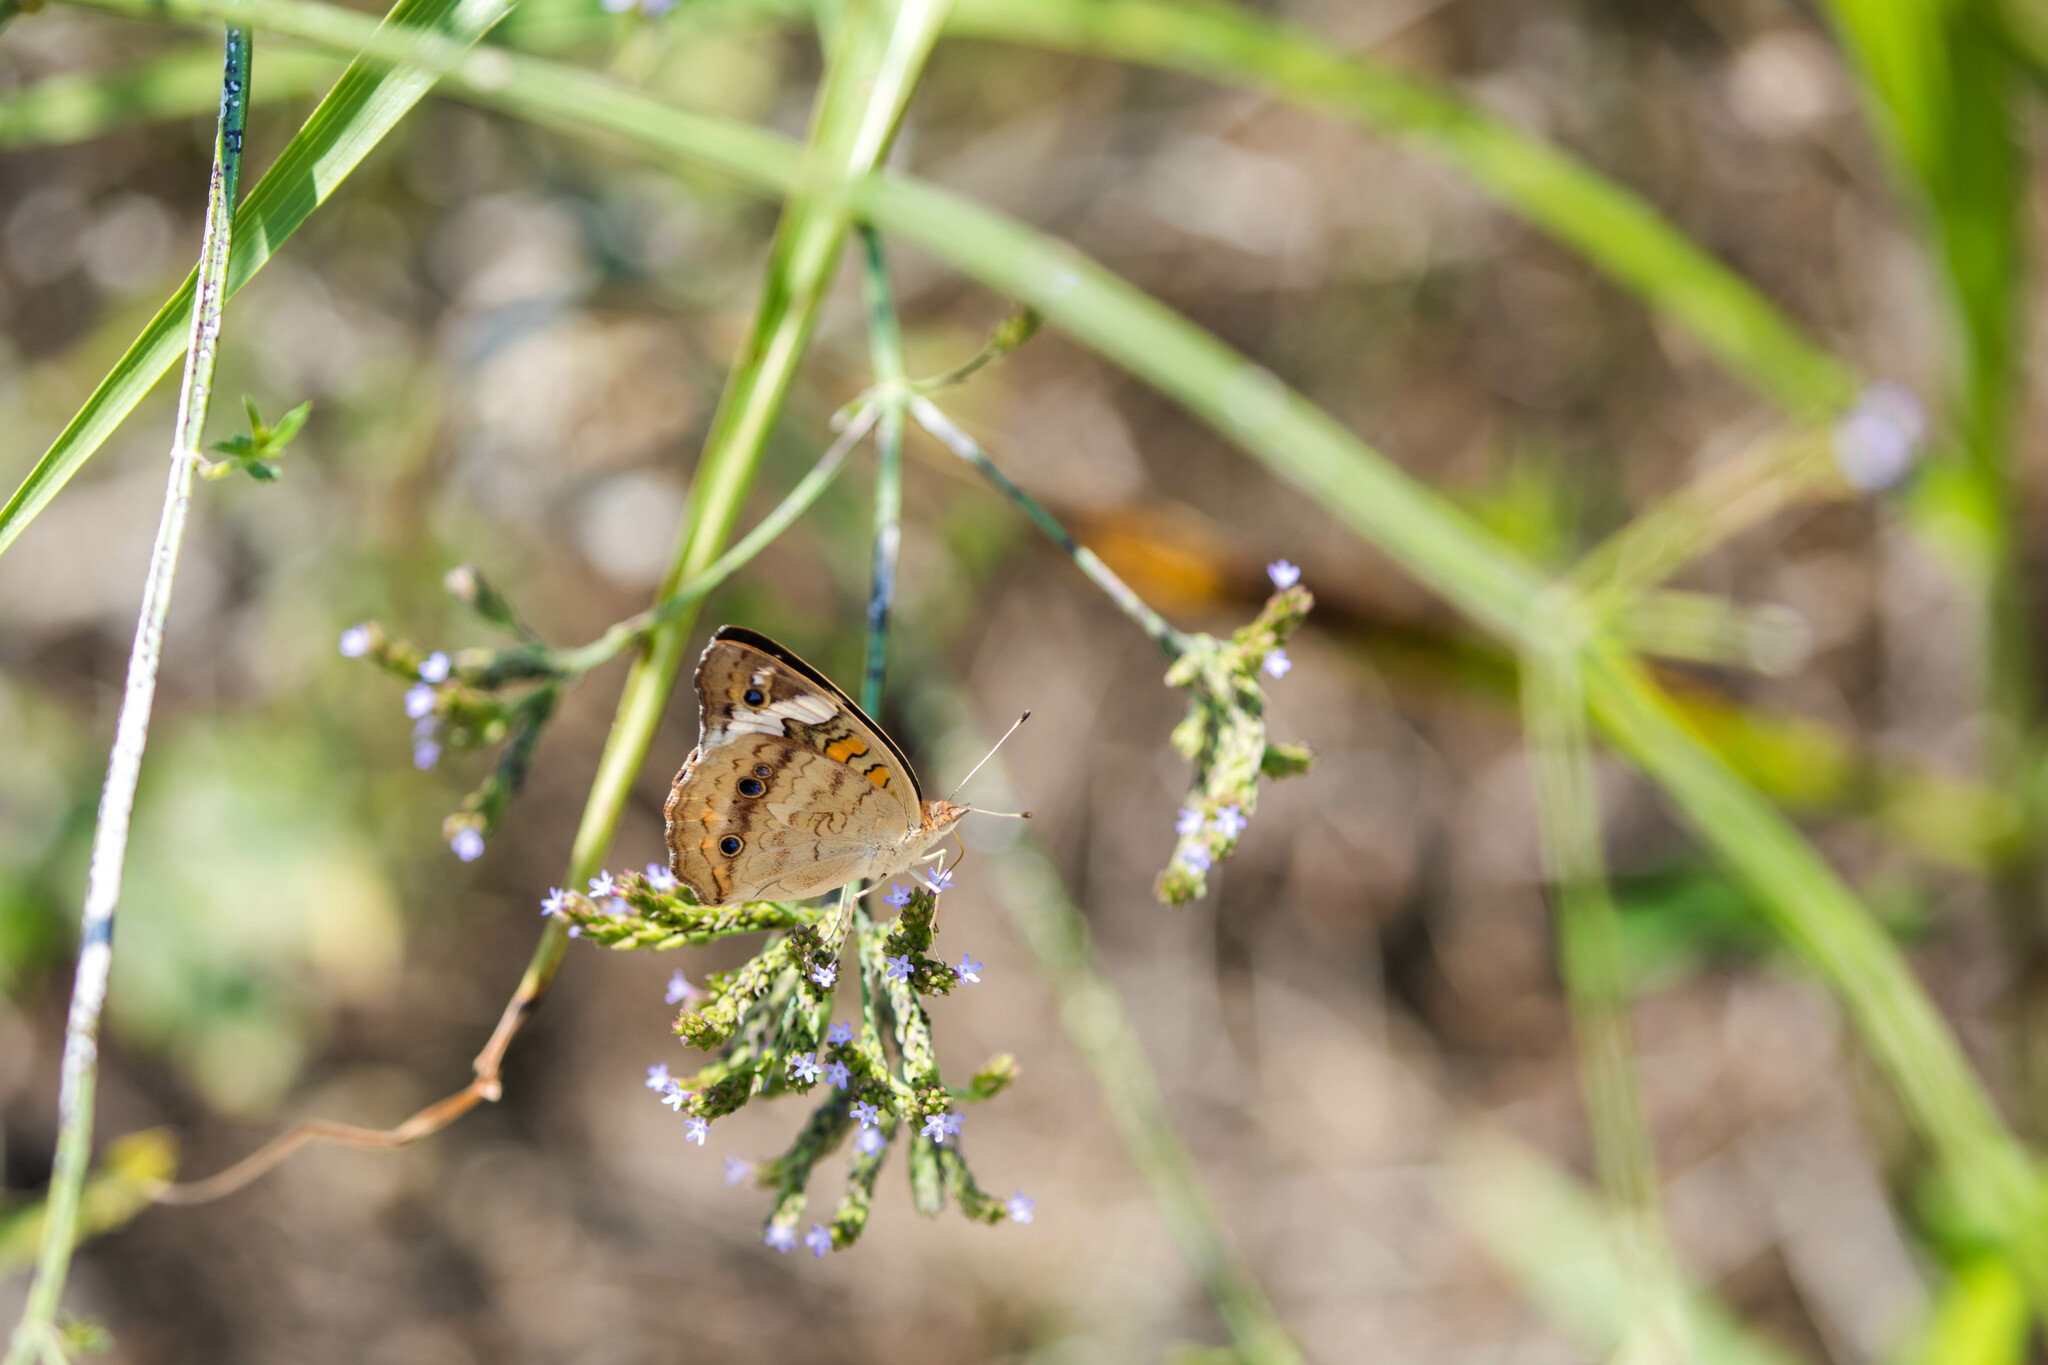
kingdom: Animalia
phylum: Arthropoda
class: Insecta
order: Lepidoptera
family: Nymphalidae
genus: Junonia
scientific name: Junonia coenia
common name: Common buckeye
